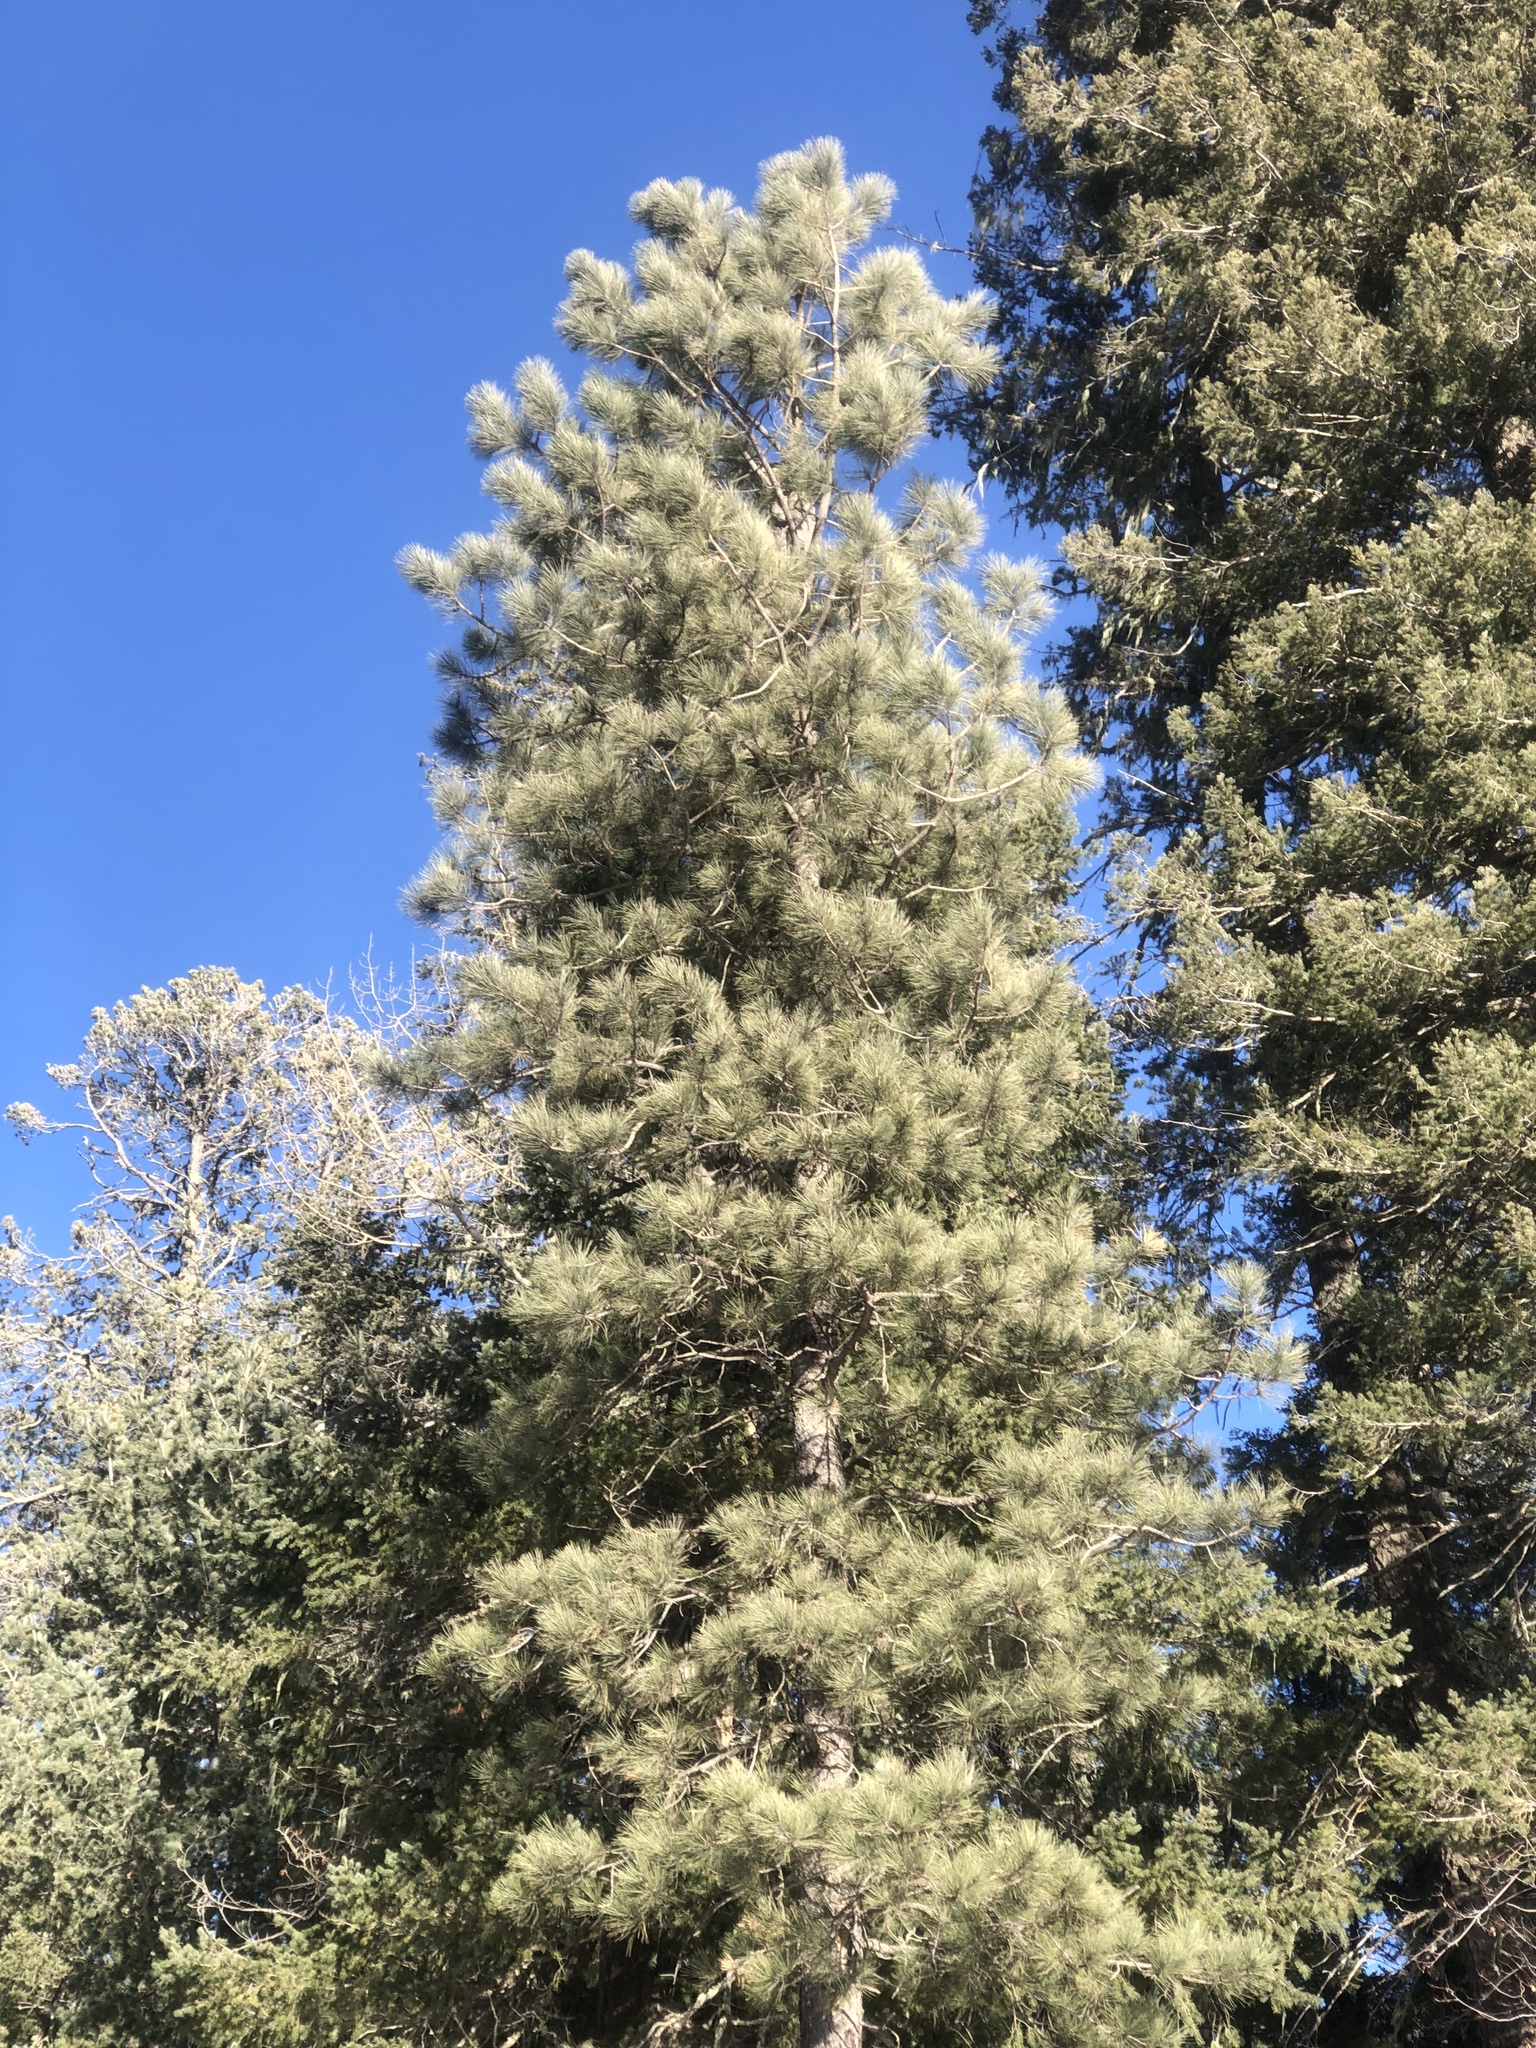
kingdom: Plantae
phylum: Tracheophyta
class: Pinopsida
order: Pinales
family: Pinaceae
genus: Pinus
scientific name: Pinus ponderosa
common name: Western yellow-pine
